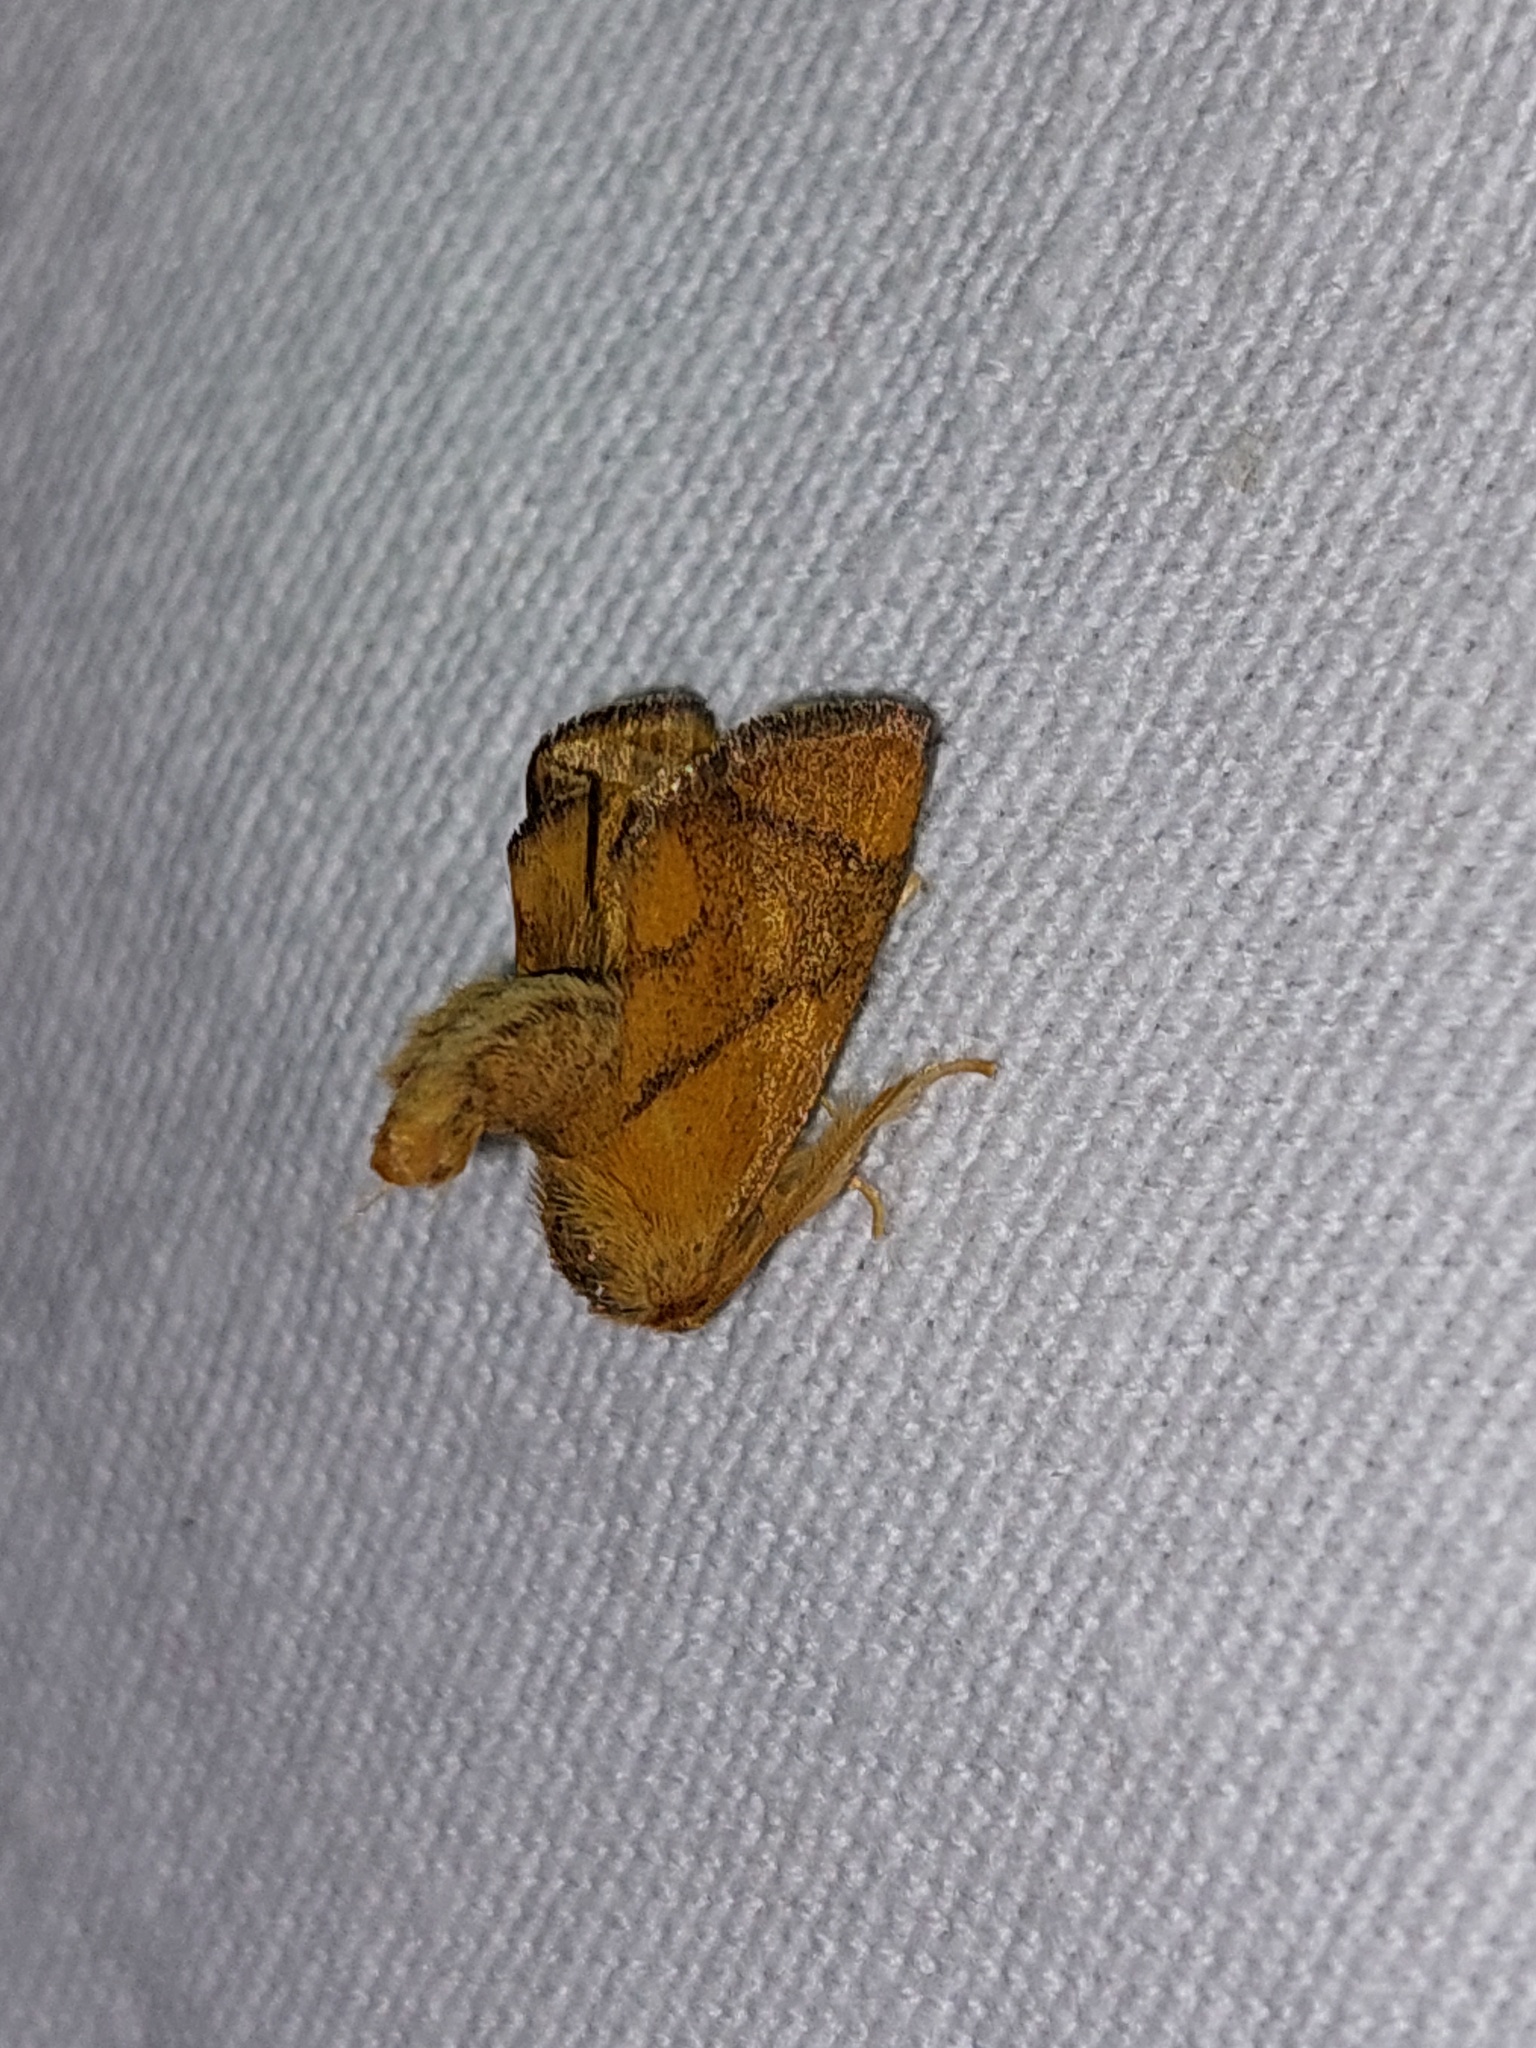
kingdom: Animalia
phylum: Arthropoda
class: Insecta
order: Lepidoptera
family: Limacodidae
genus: Apoda
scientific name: Apoda limacodes
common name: Festoon
